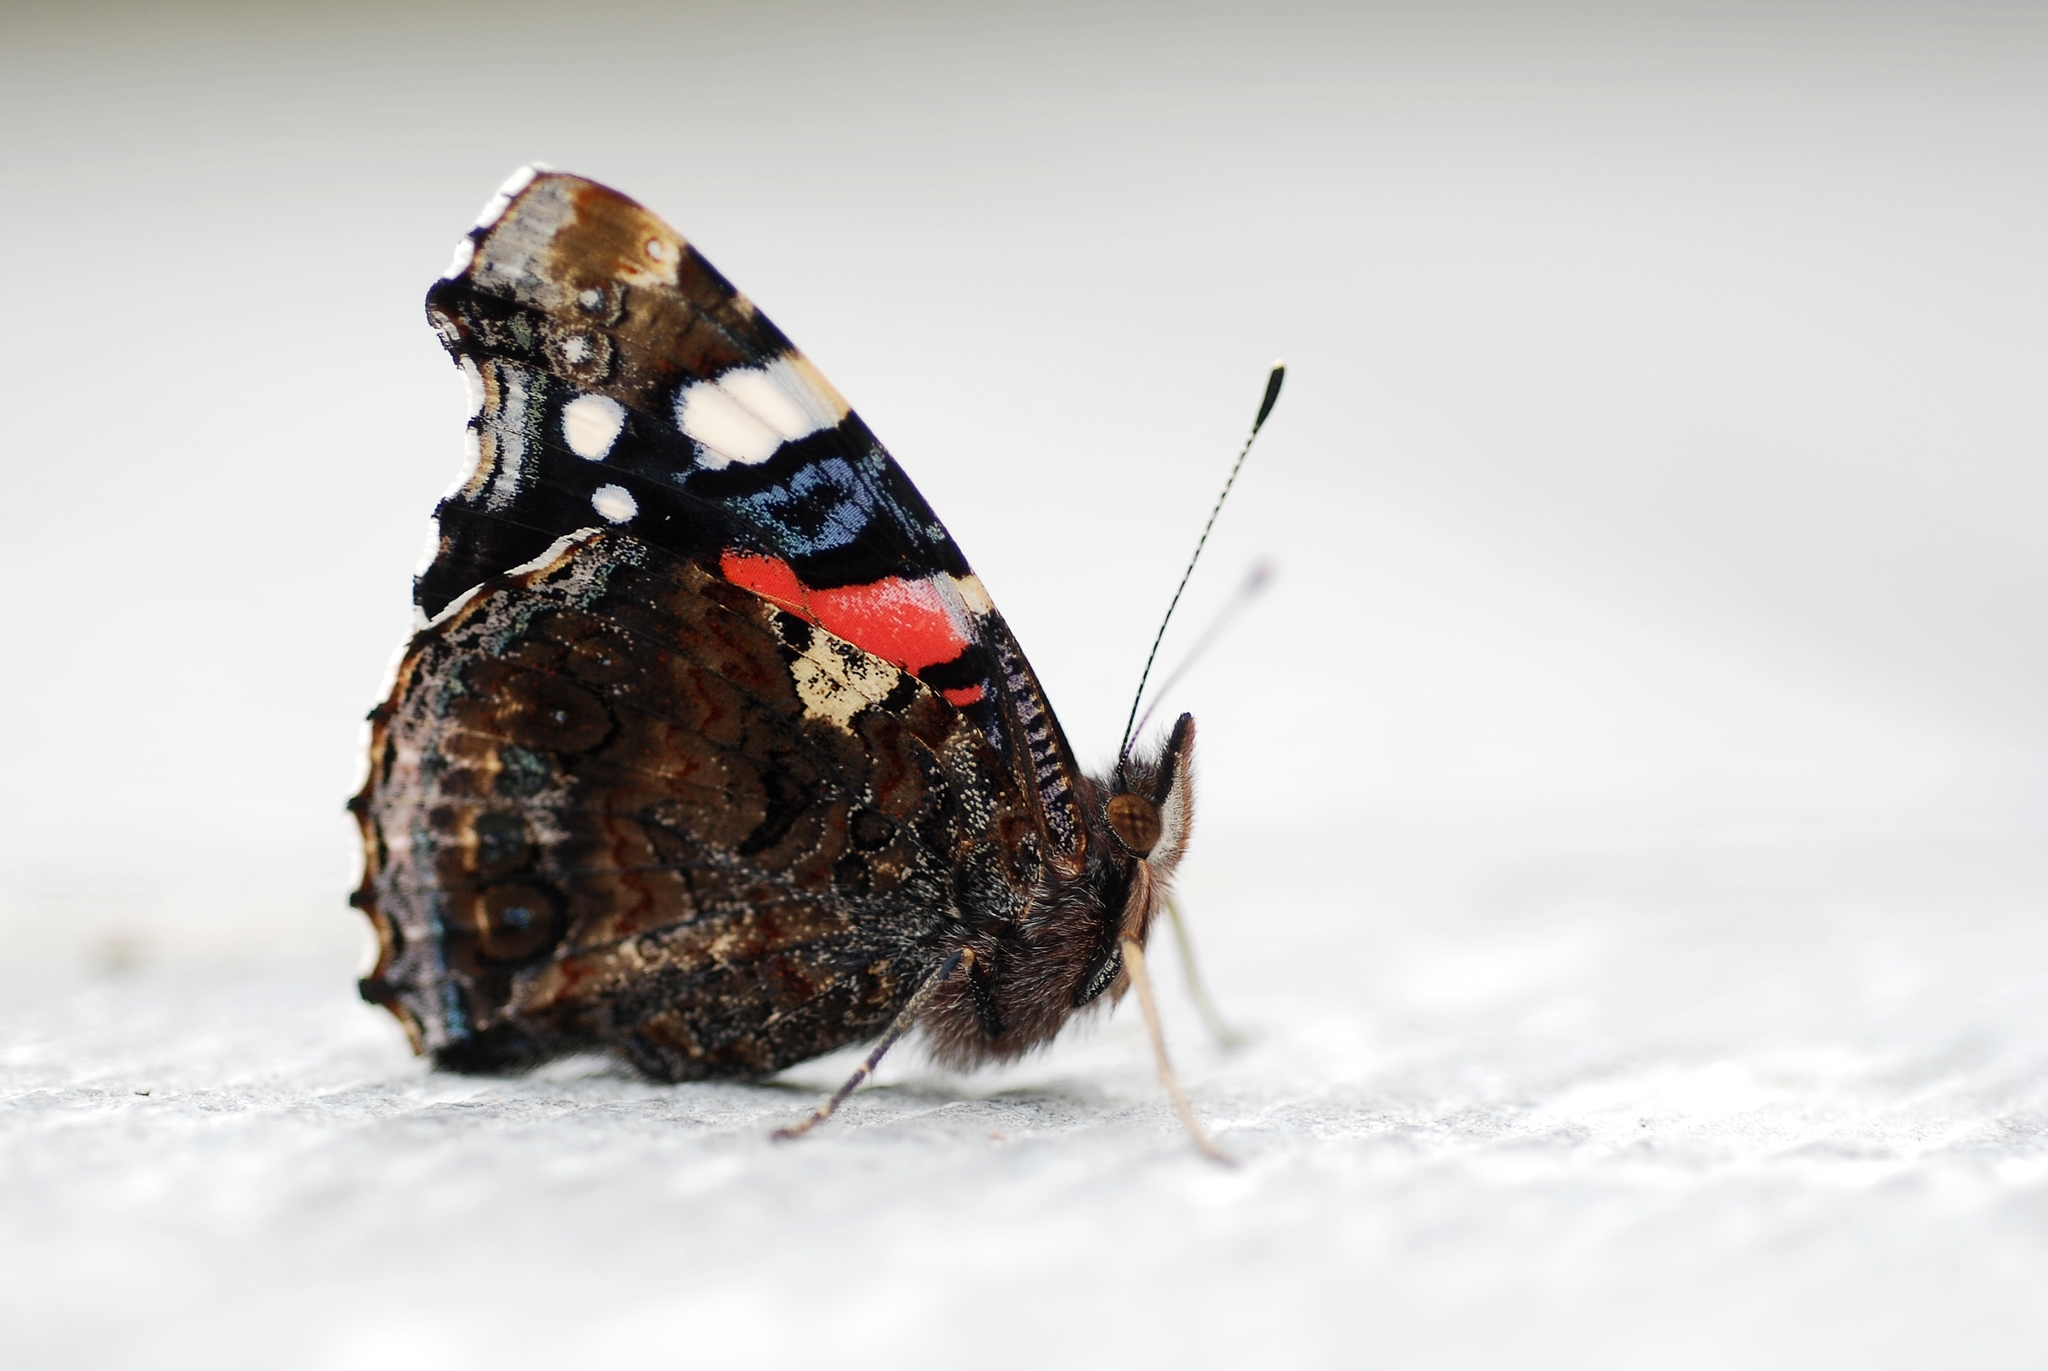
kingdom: Animalia
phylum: Arthropoda
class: Insecta
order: Lepidoptera
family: Nymphalidae
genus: Vanessa
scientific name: Vanessa atalanta
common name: Red admiral
